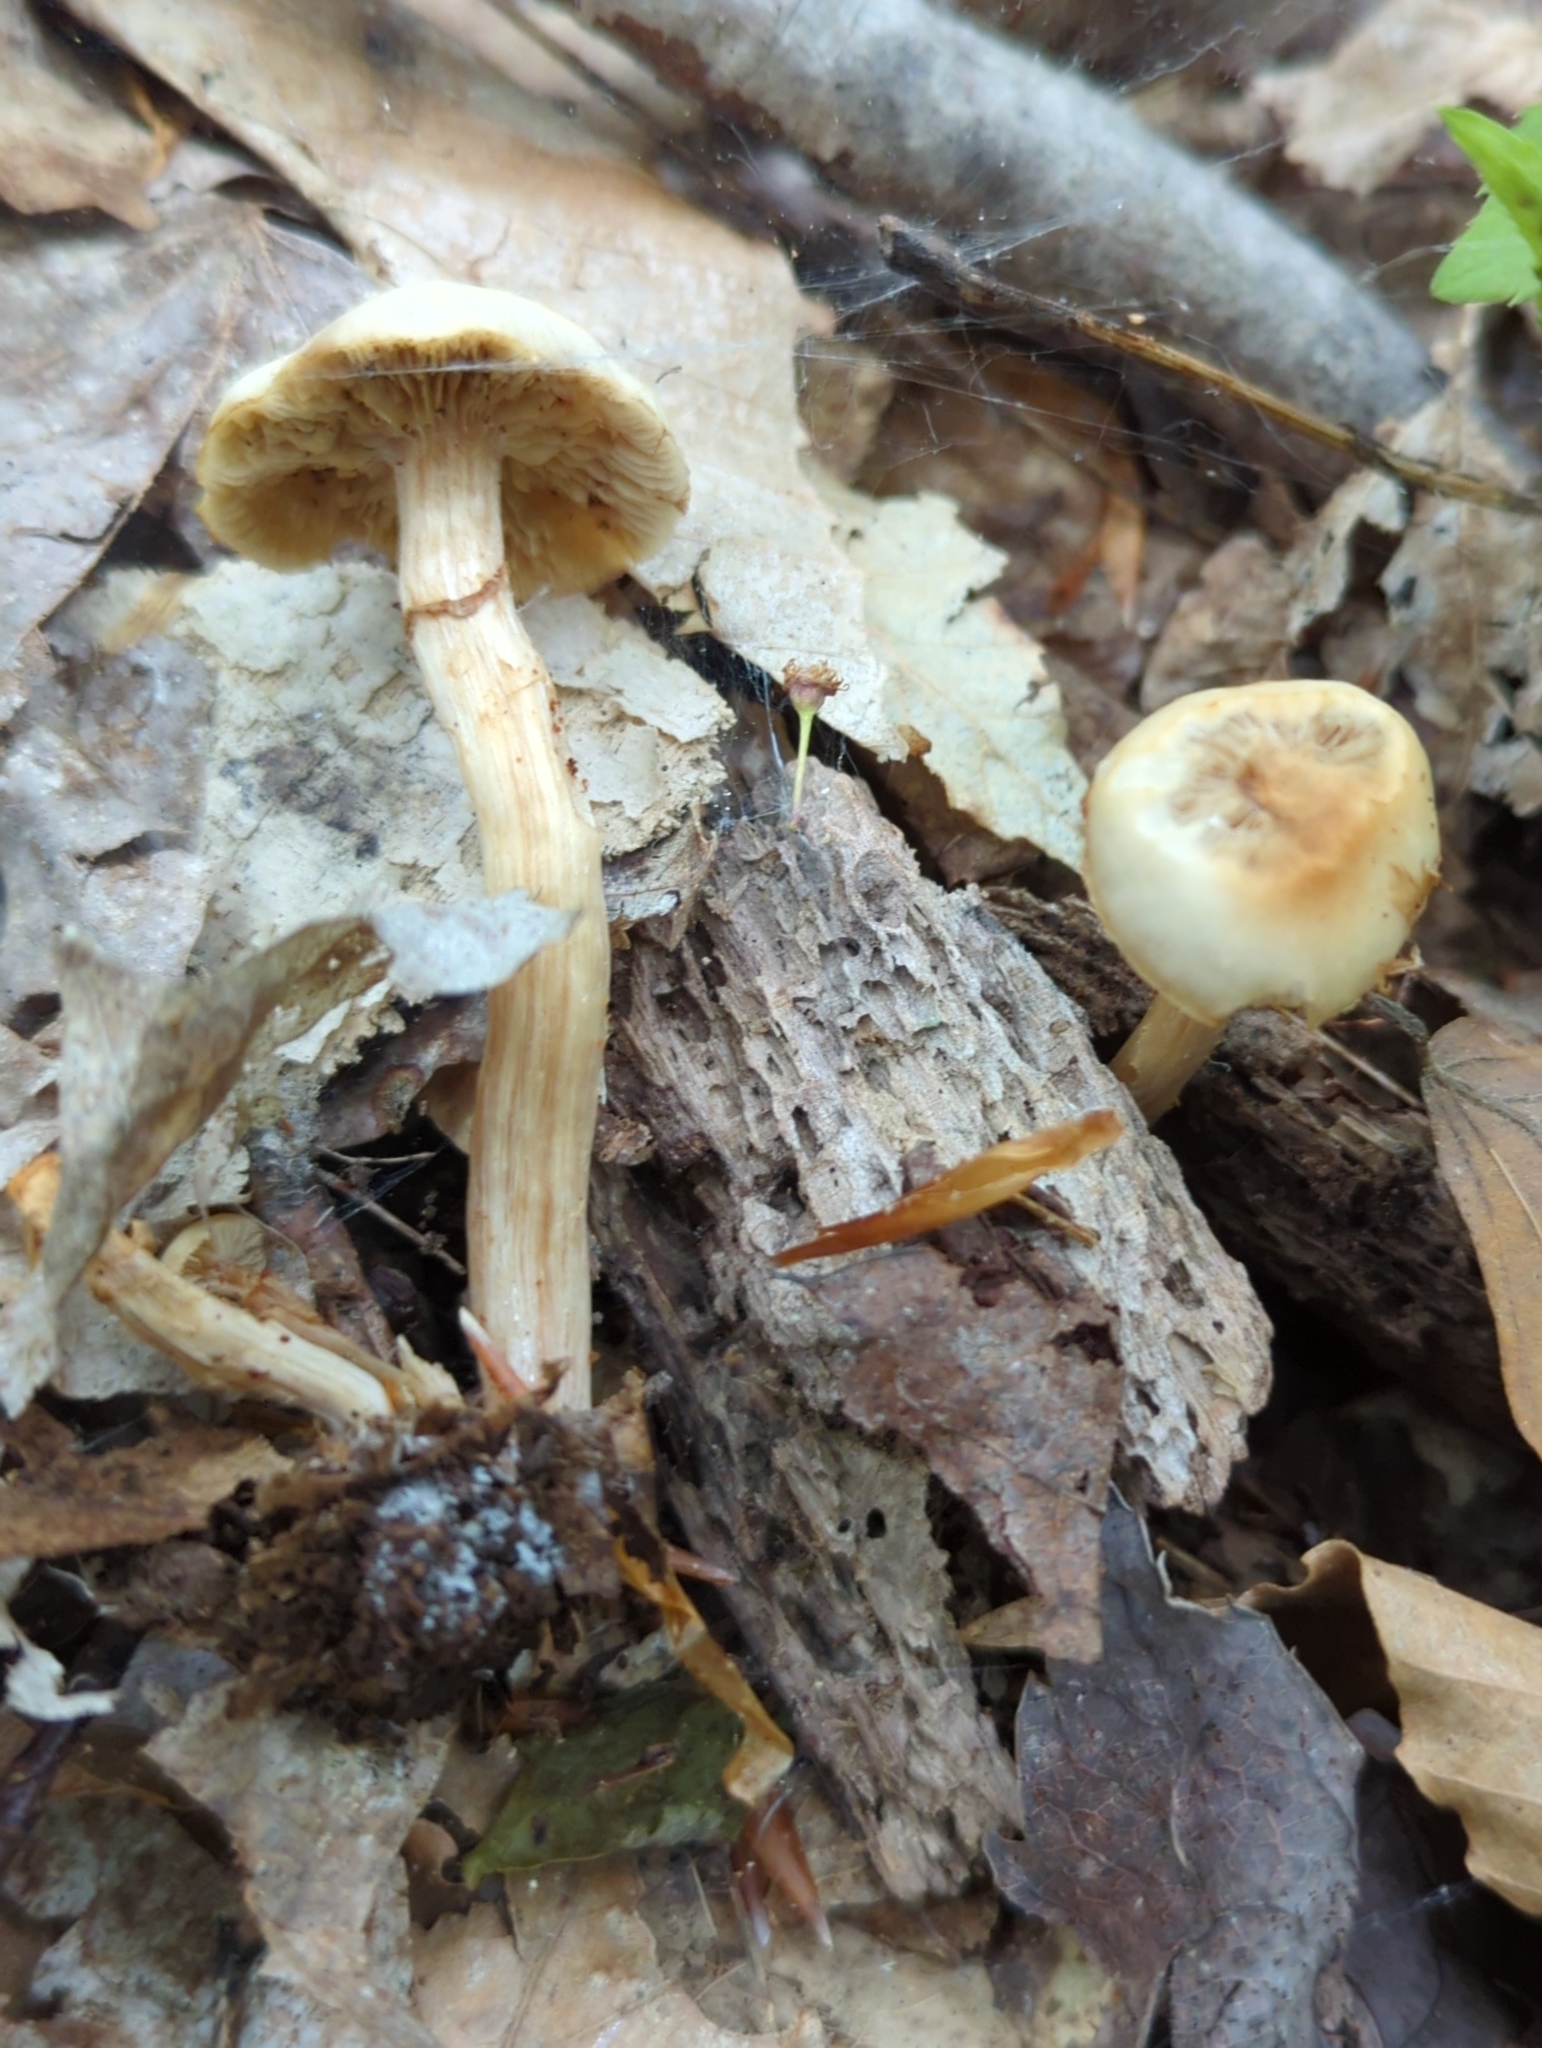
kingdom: Fungi
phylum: Basidiomycota
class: Agaricomycetes
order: Agaricales
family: Strophariaceae
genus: Kuehneromyces
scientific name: Kuehneromyces marginellus
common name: Sheathed woodtuft
